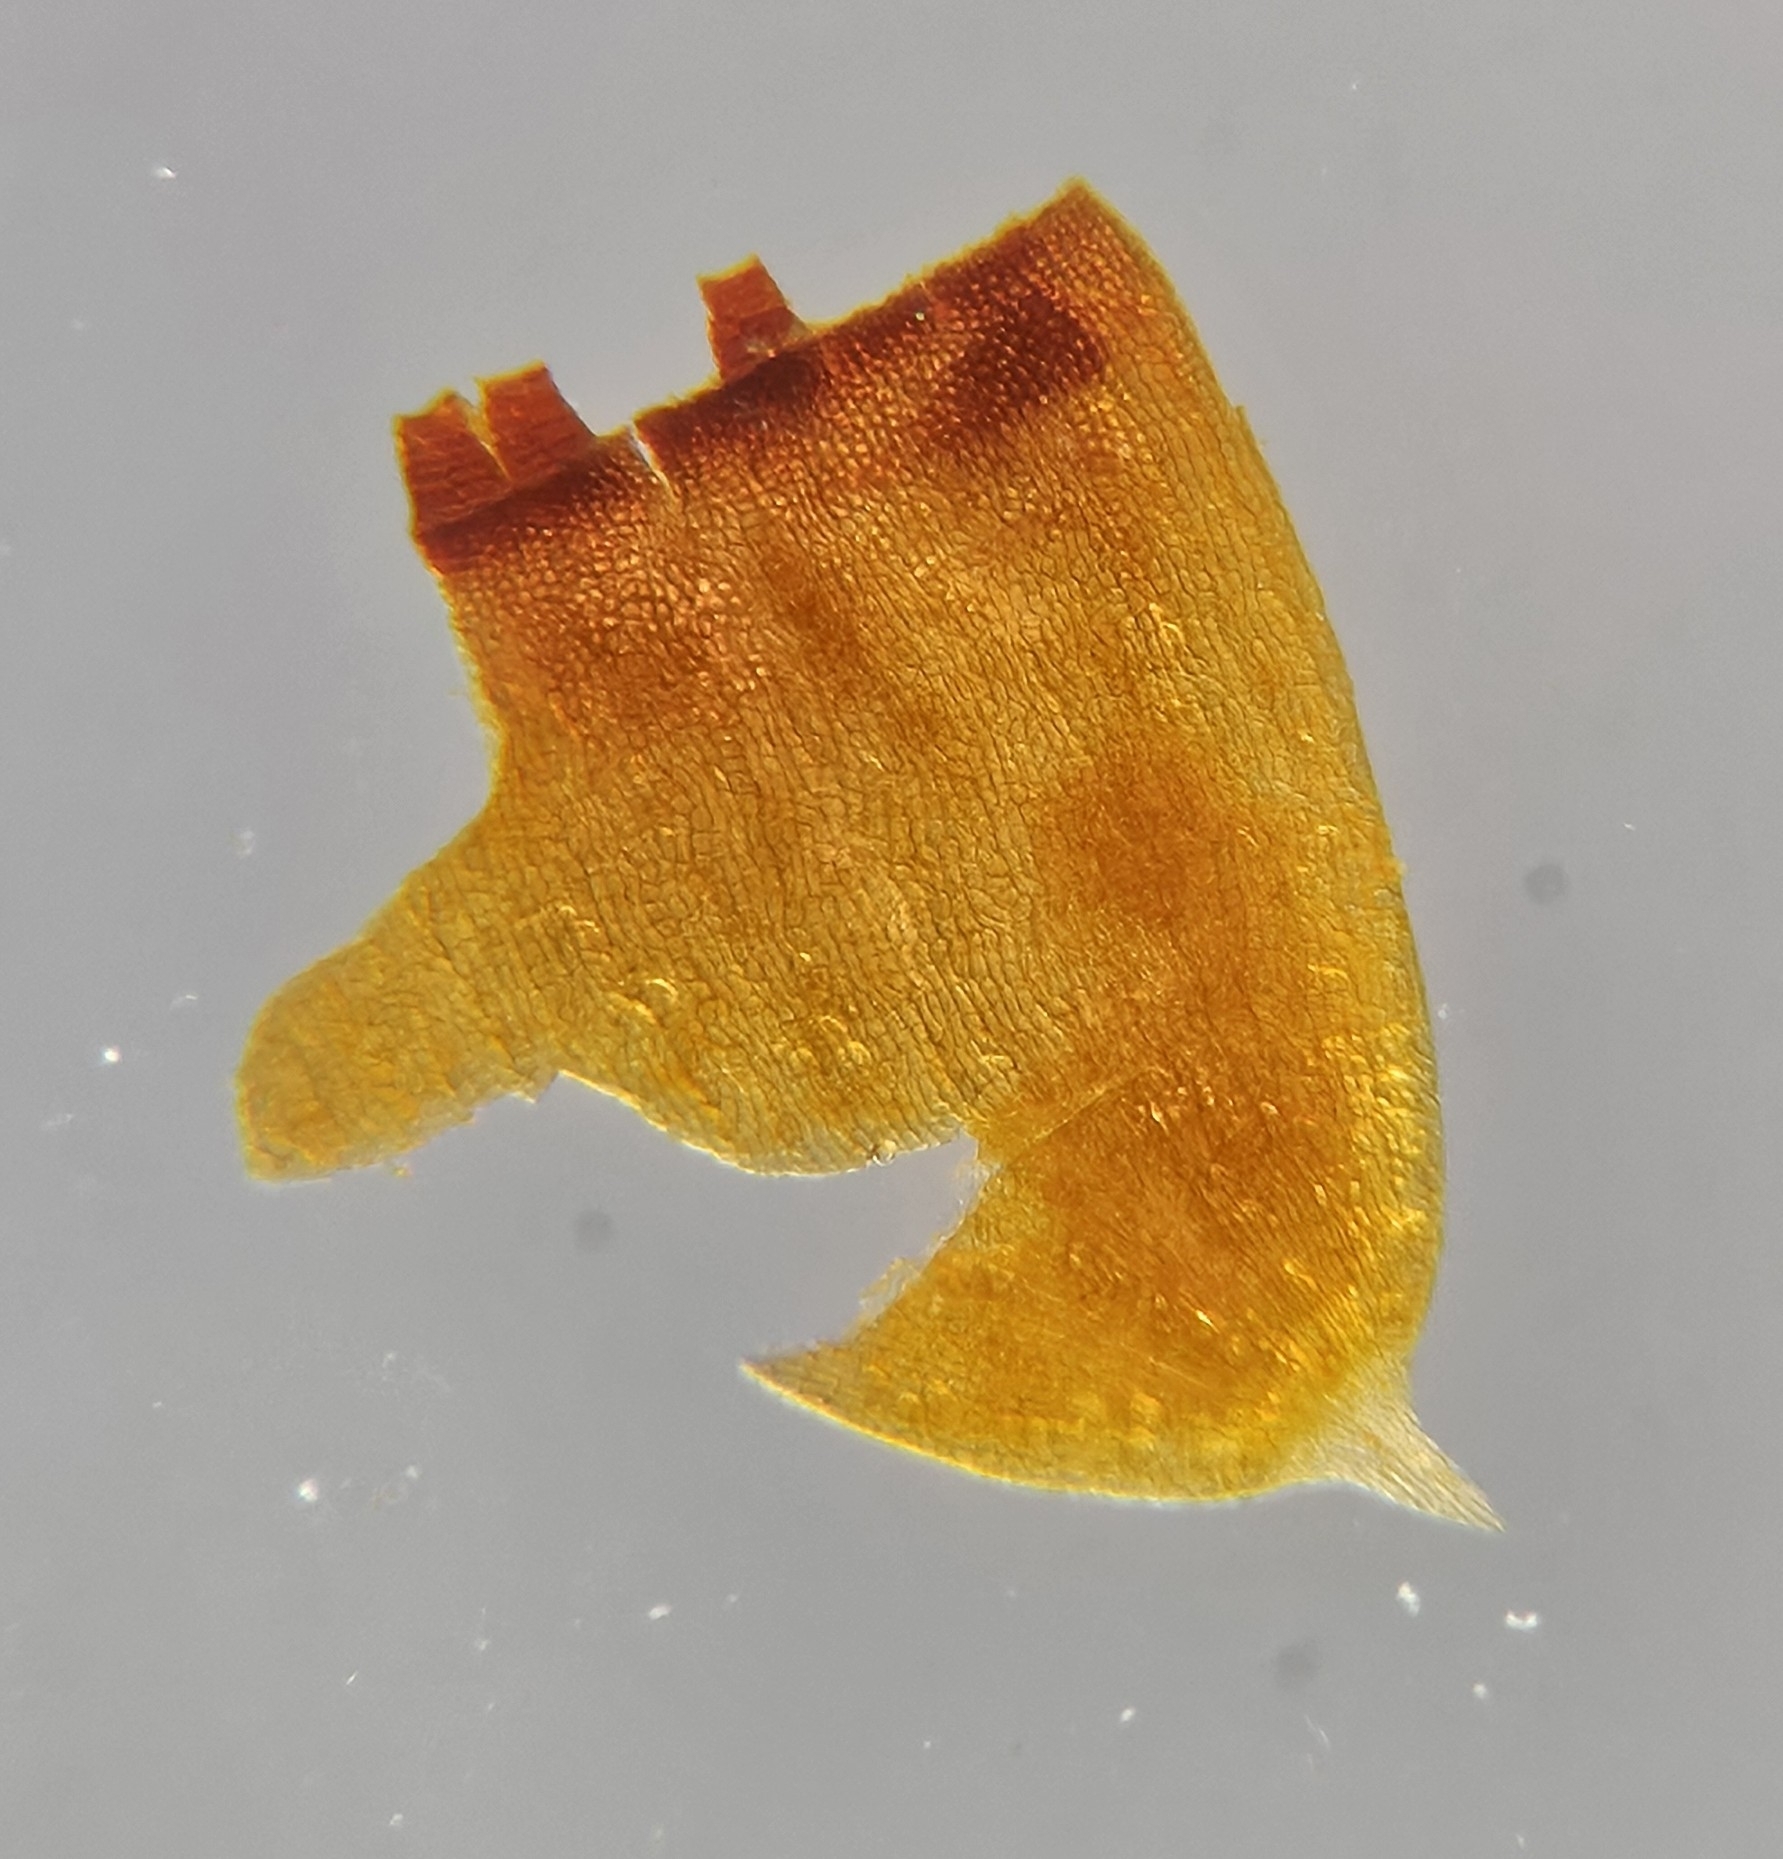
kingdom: Plantae
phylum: Bryophyta
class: Bryopsida
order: Grimmiales
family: Grimmiaceae
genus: Schistidium
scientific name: Schistidium crassipilum
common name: Thickpoint bloom moss
